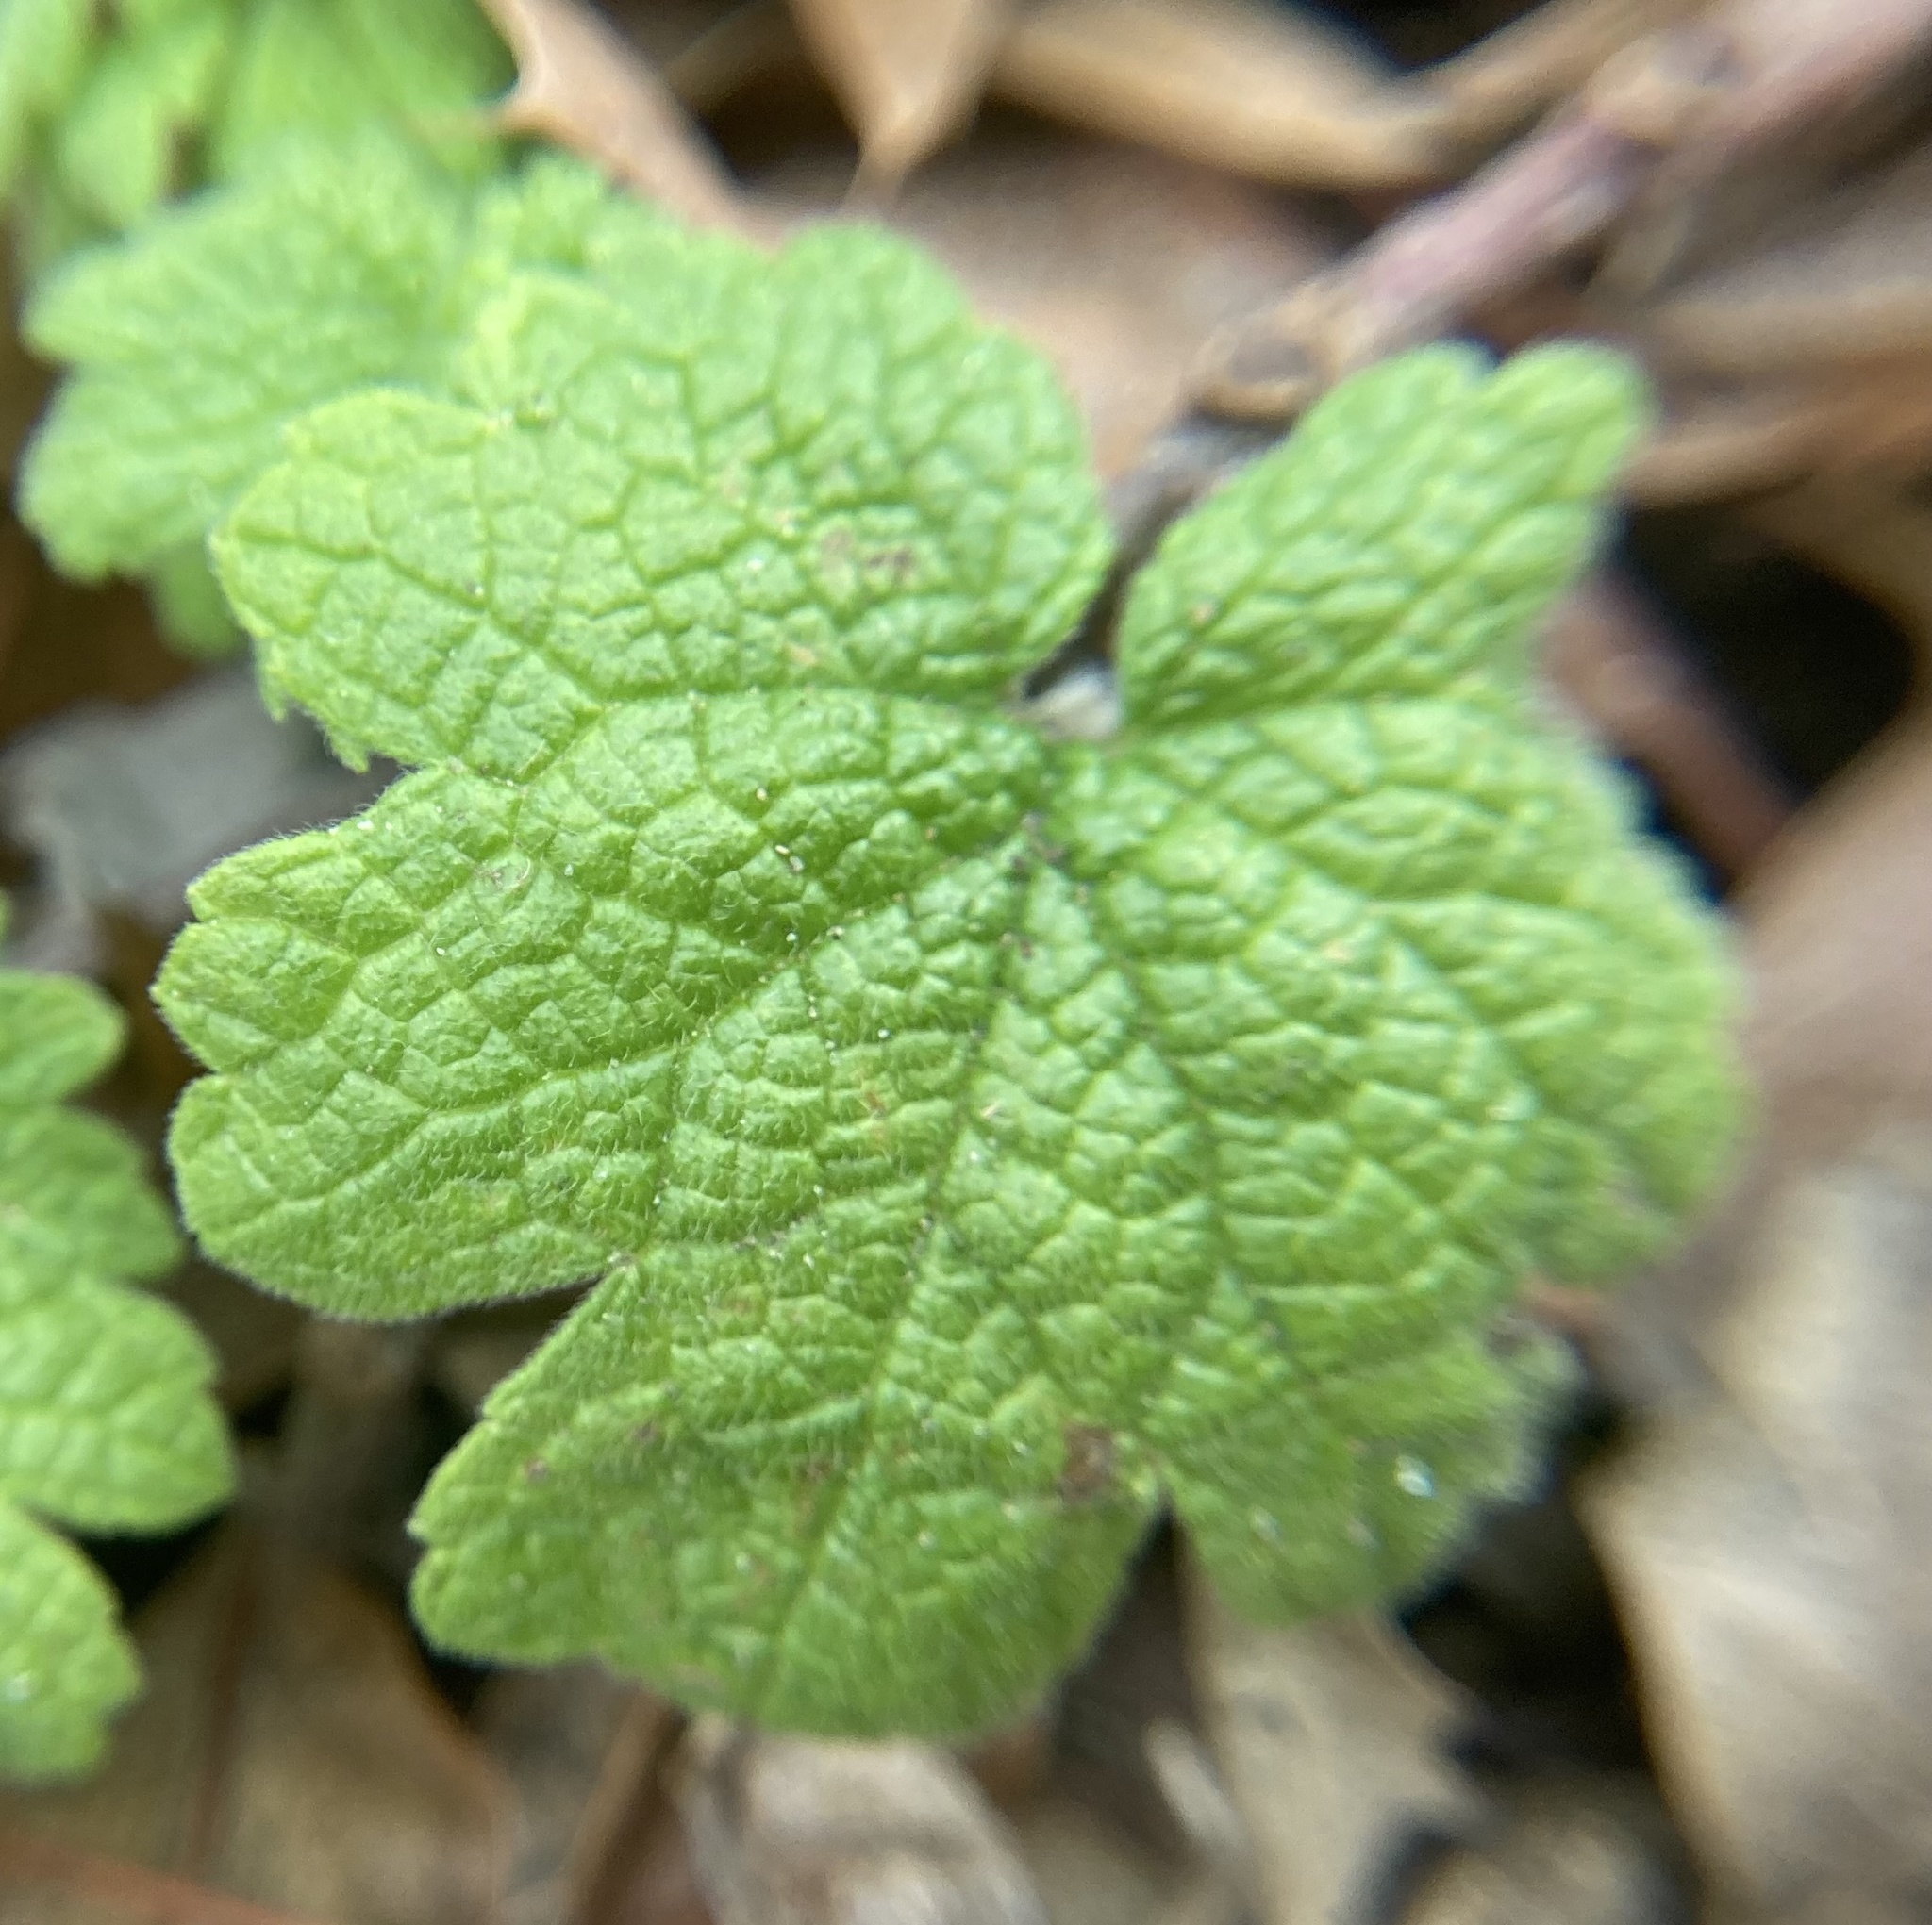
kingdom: Plantae
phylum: Tracheophyta
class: Magnoliopsida
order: Lamiales
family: Lamiaceae
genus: Leonurus
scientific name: Leonurus cardiaca
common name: Motherwort
